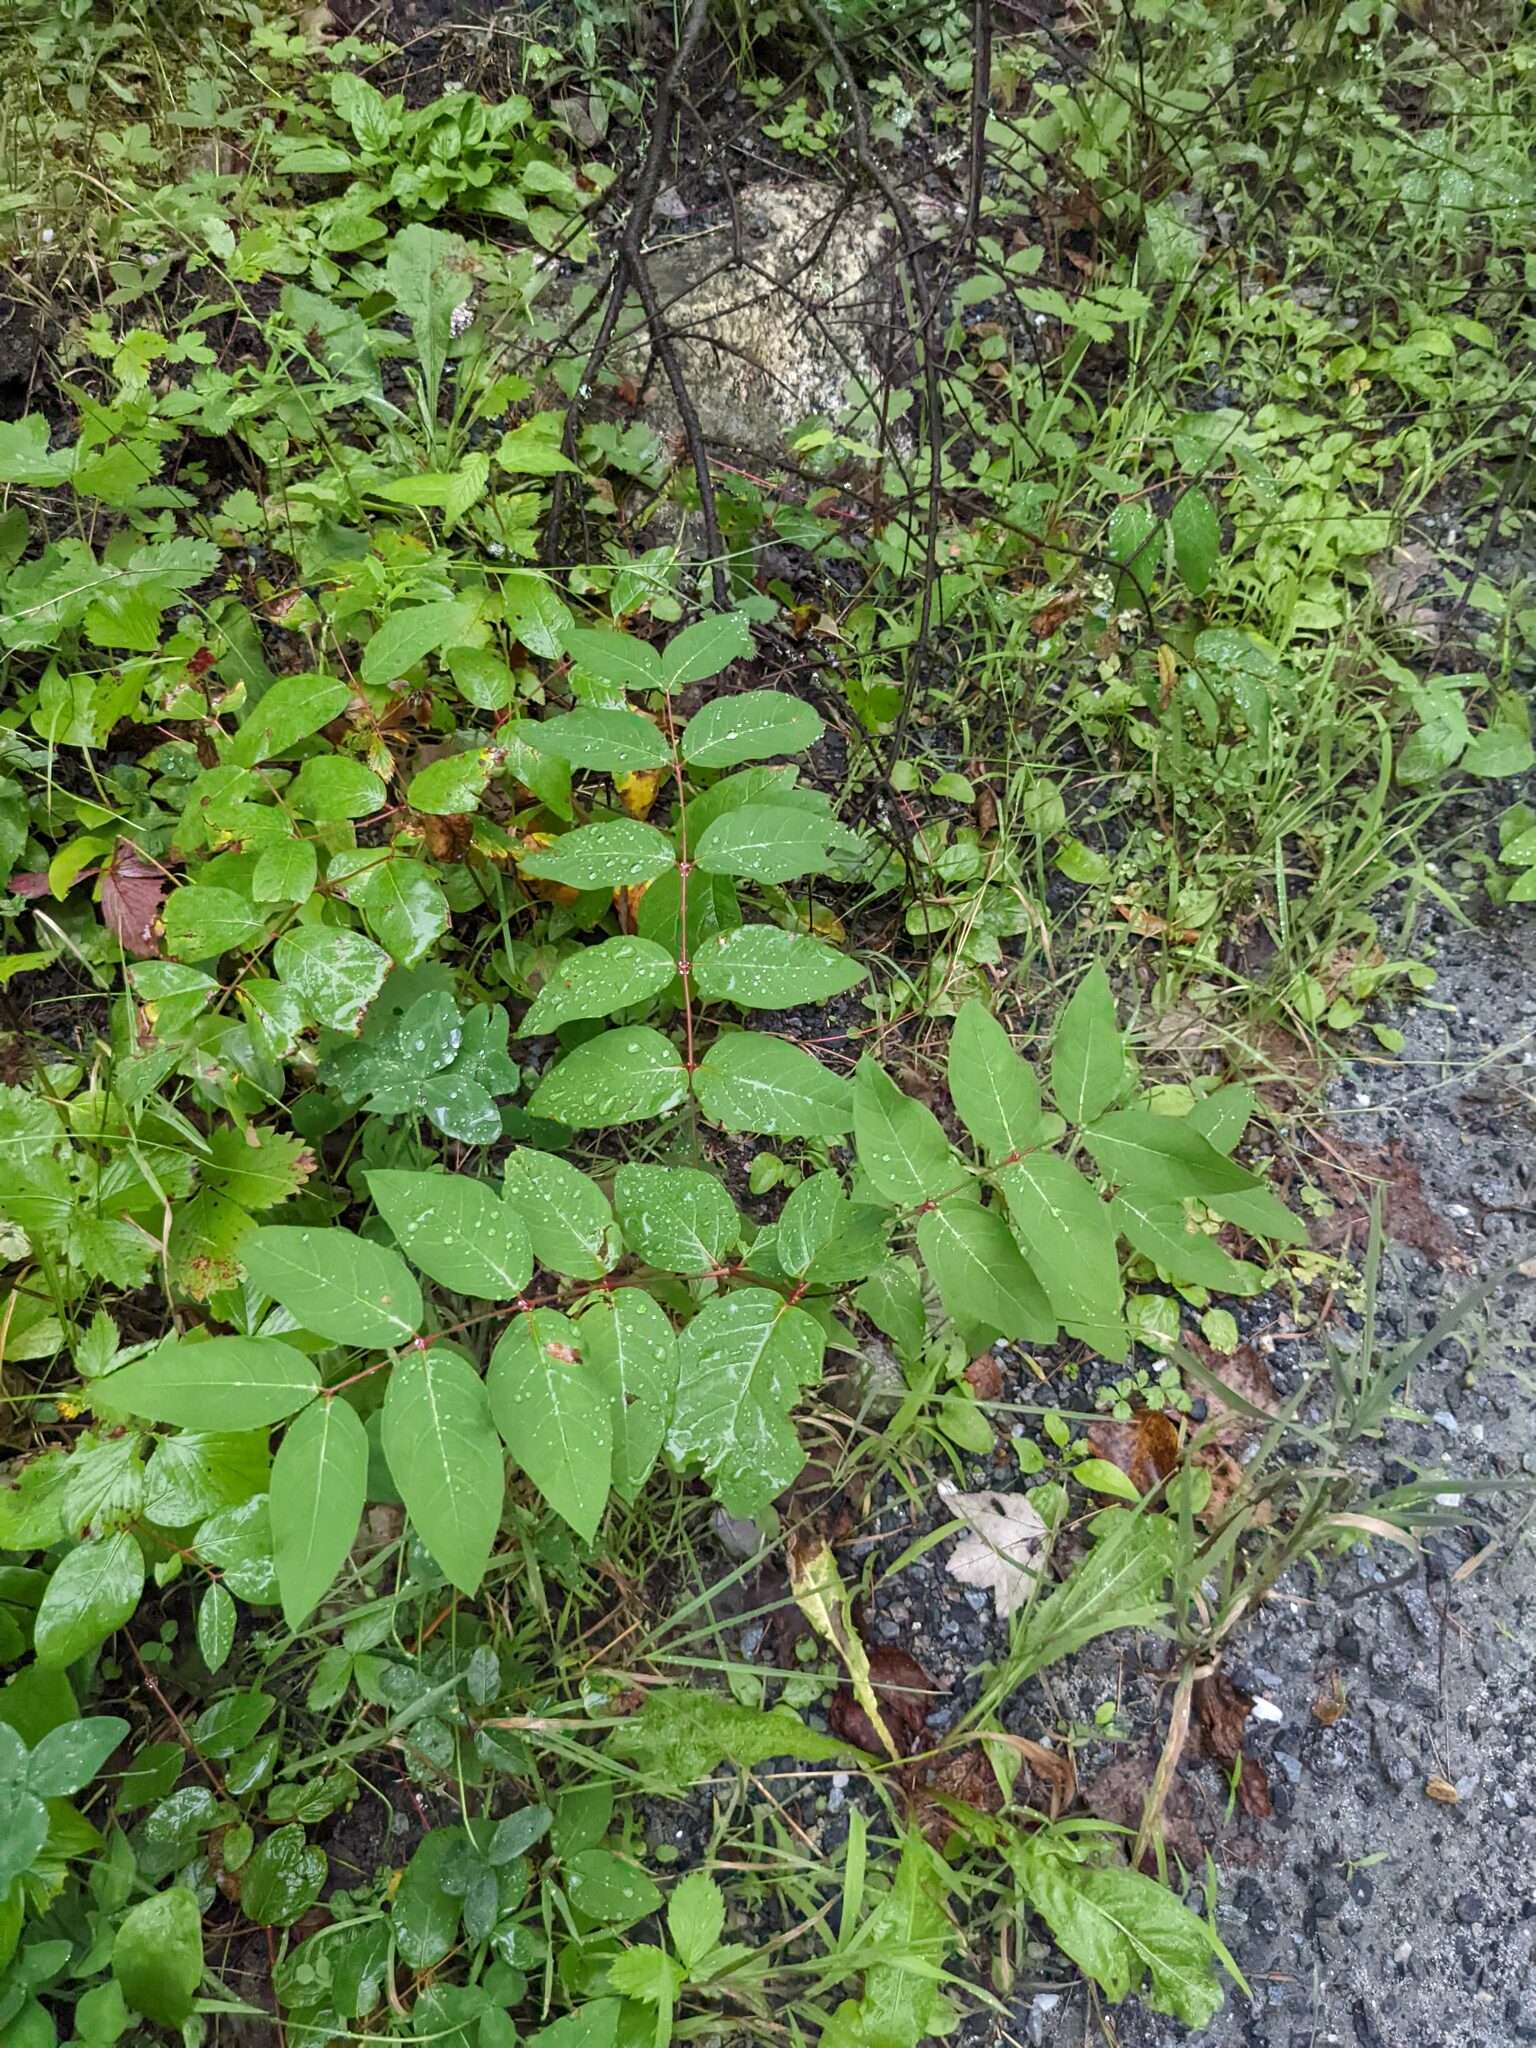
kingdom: Plantae
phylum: Tracheophyta
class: Magnoliopsida
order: Gentianales
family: Apocynaceae
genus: Apocynum
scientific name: Apocynum androsaemifolium
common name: Spreading dogbane
